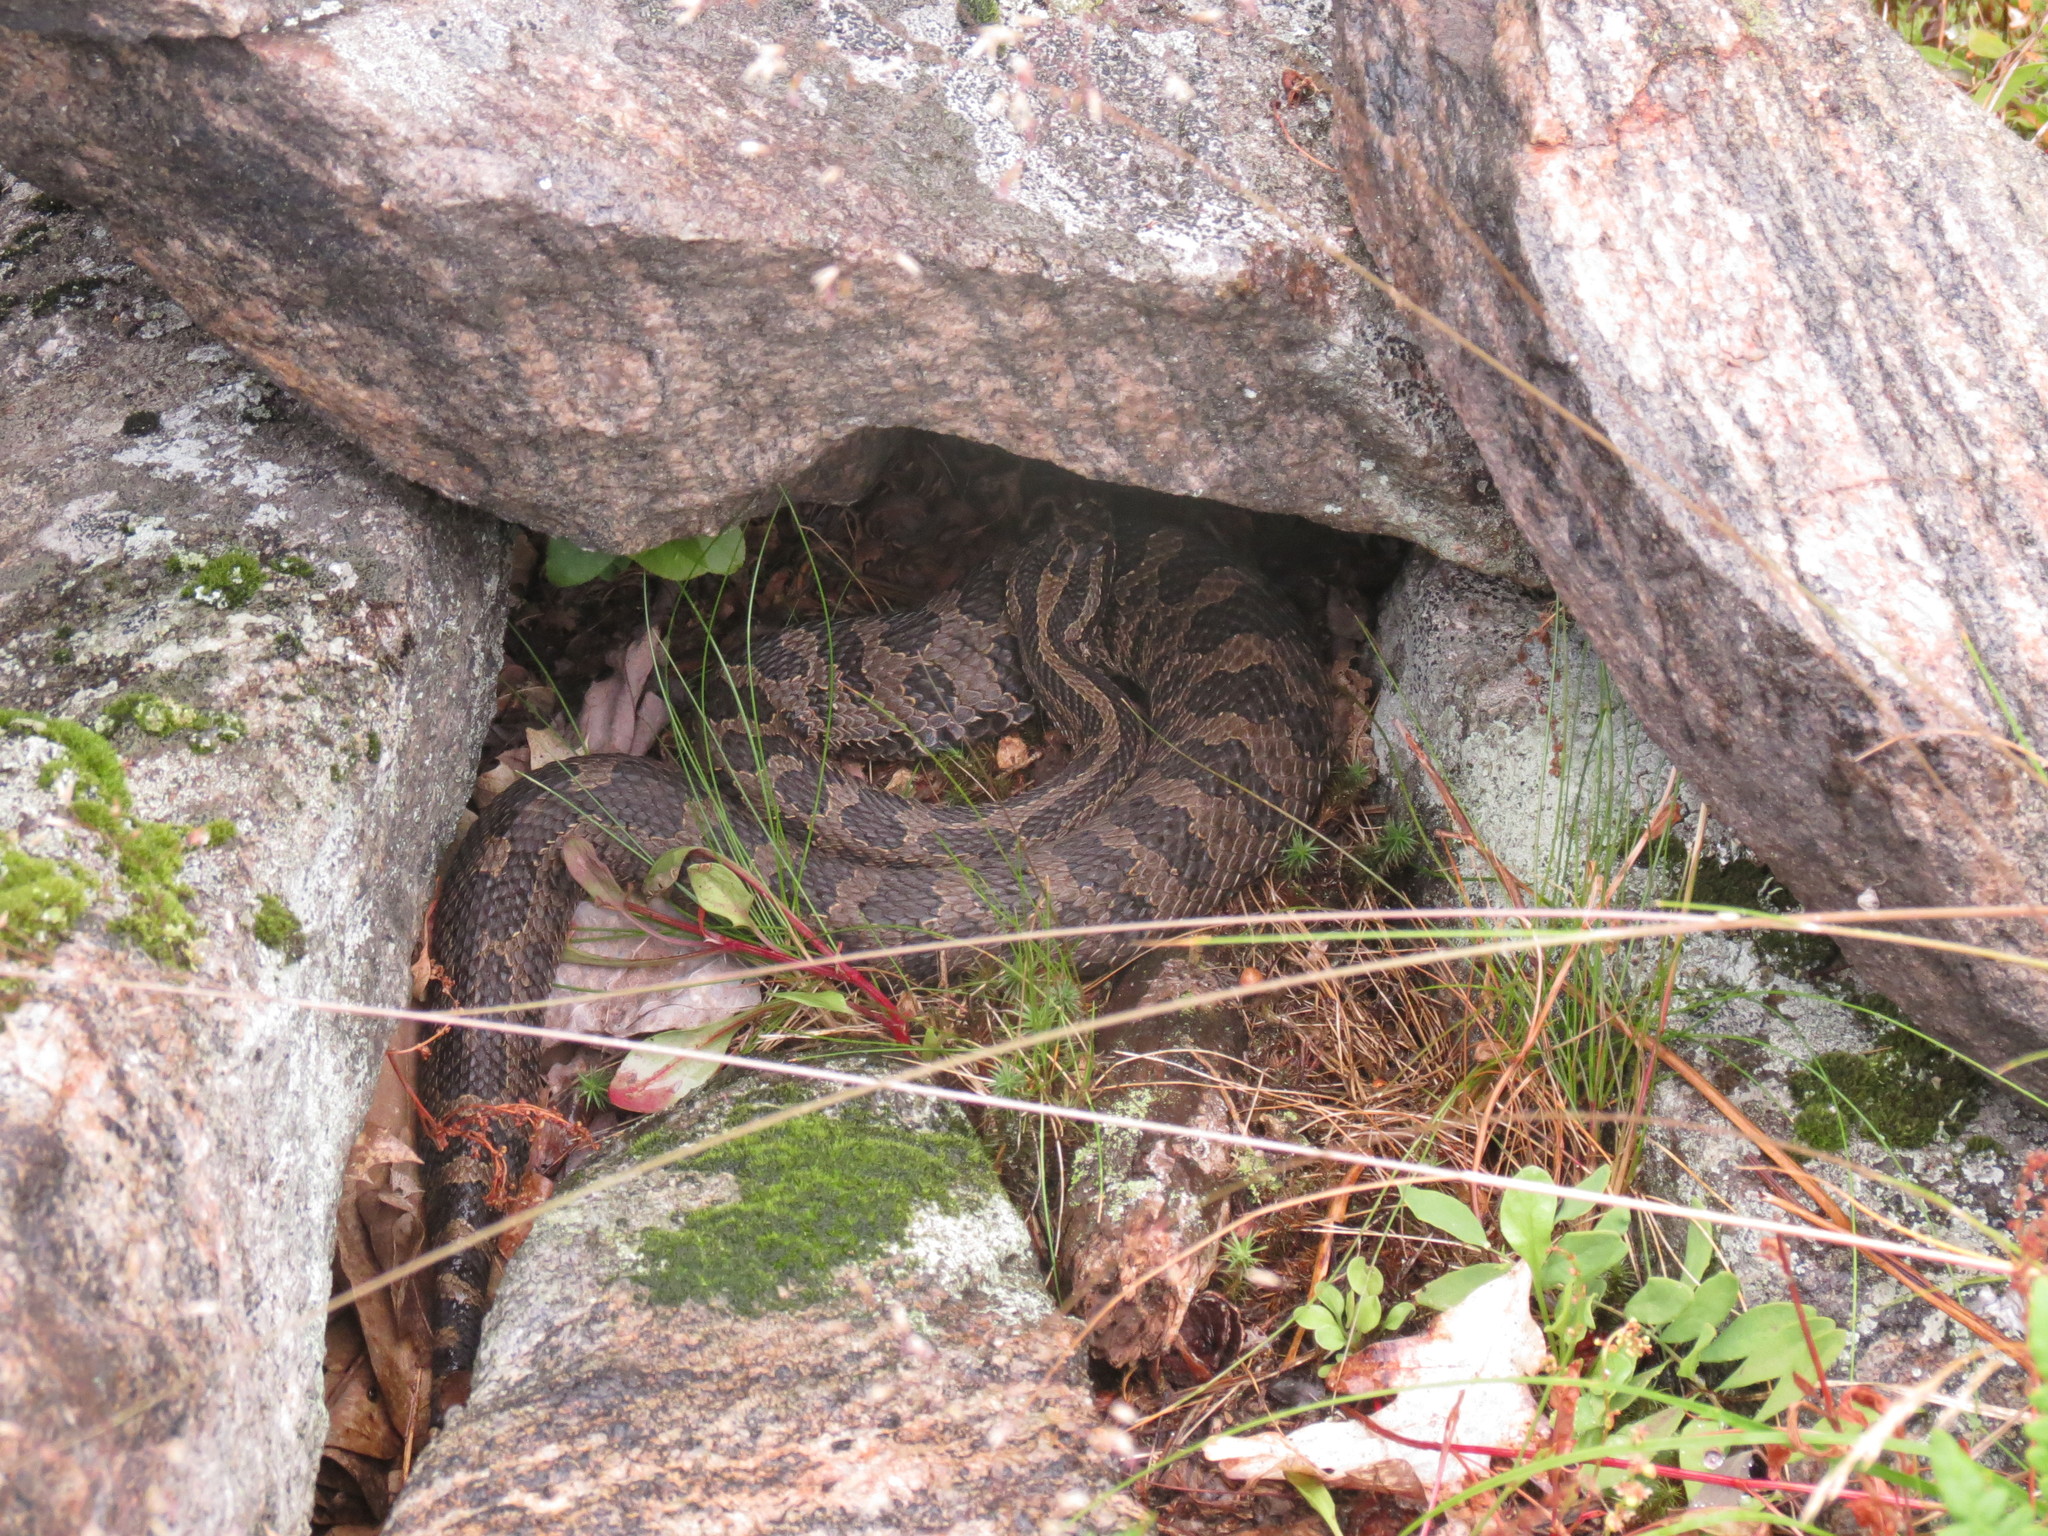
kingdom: Animalia
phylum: Chordata
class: Squamata
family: Viperidae
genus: Sistrurus
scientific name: Sistrurus catenatus
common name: Massasauga
